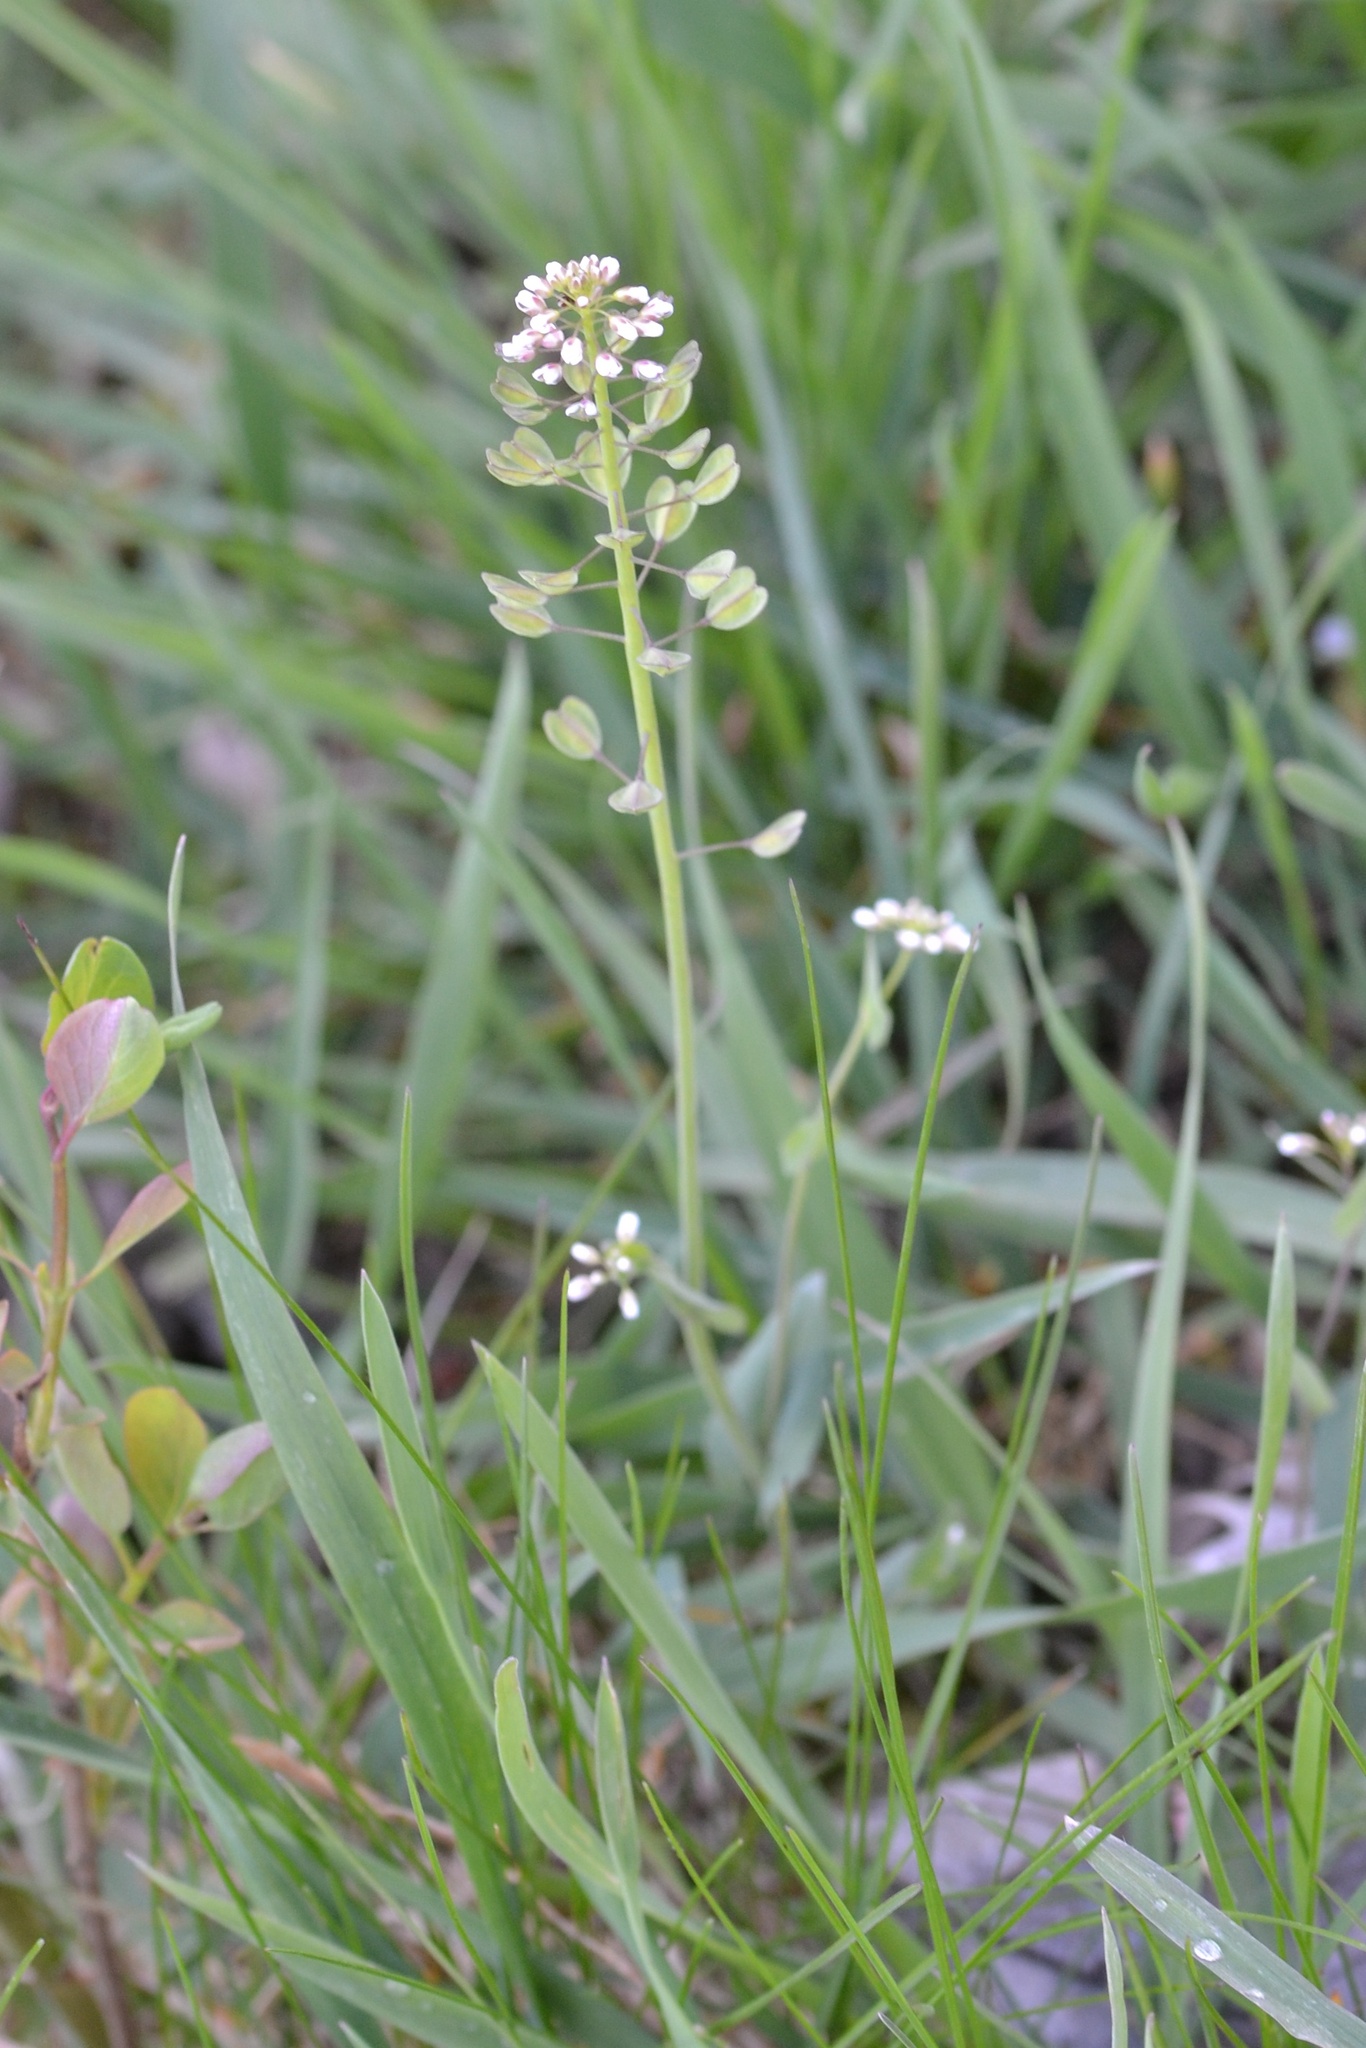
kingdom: Plantae
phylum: Tracheophyta
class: Magnoliopsida
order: Brassicales
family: Brassicaceae
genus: Noccaea
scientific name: Noccaea perfoliata
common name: Perfoliate pennycress
